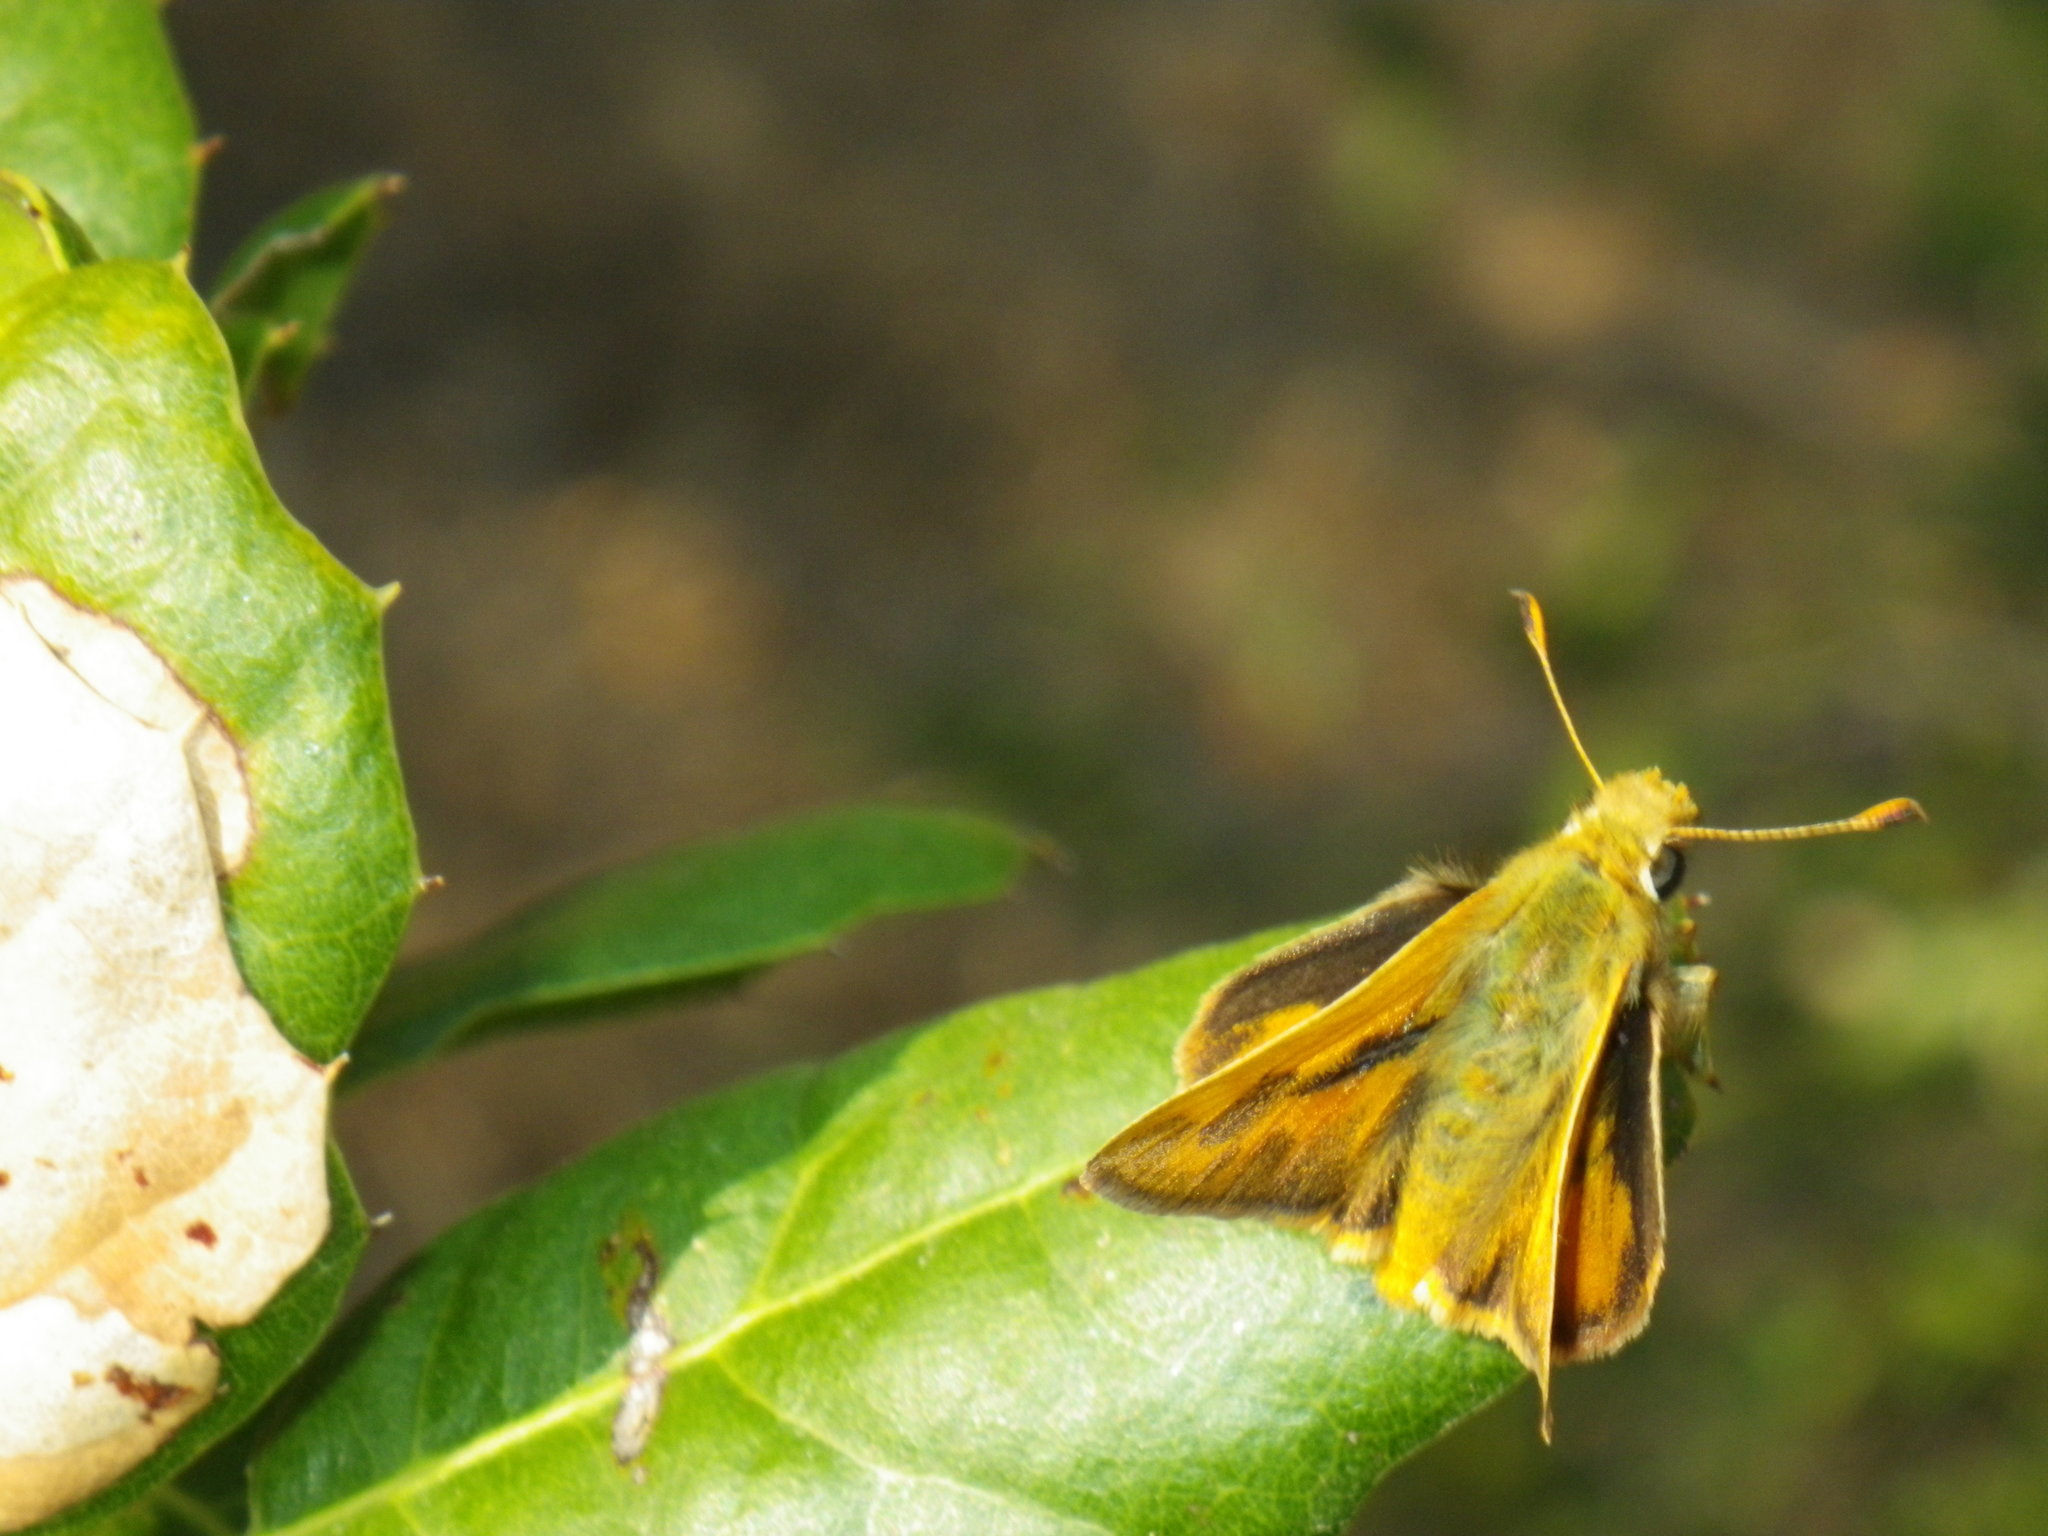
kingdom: Animalia
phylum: Arthropoda
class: Insecta
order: Lepidoptera
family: Hesperiidae
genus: Ochlodes
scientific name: Ochlodes sylvanoides
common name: Woodland skipper
